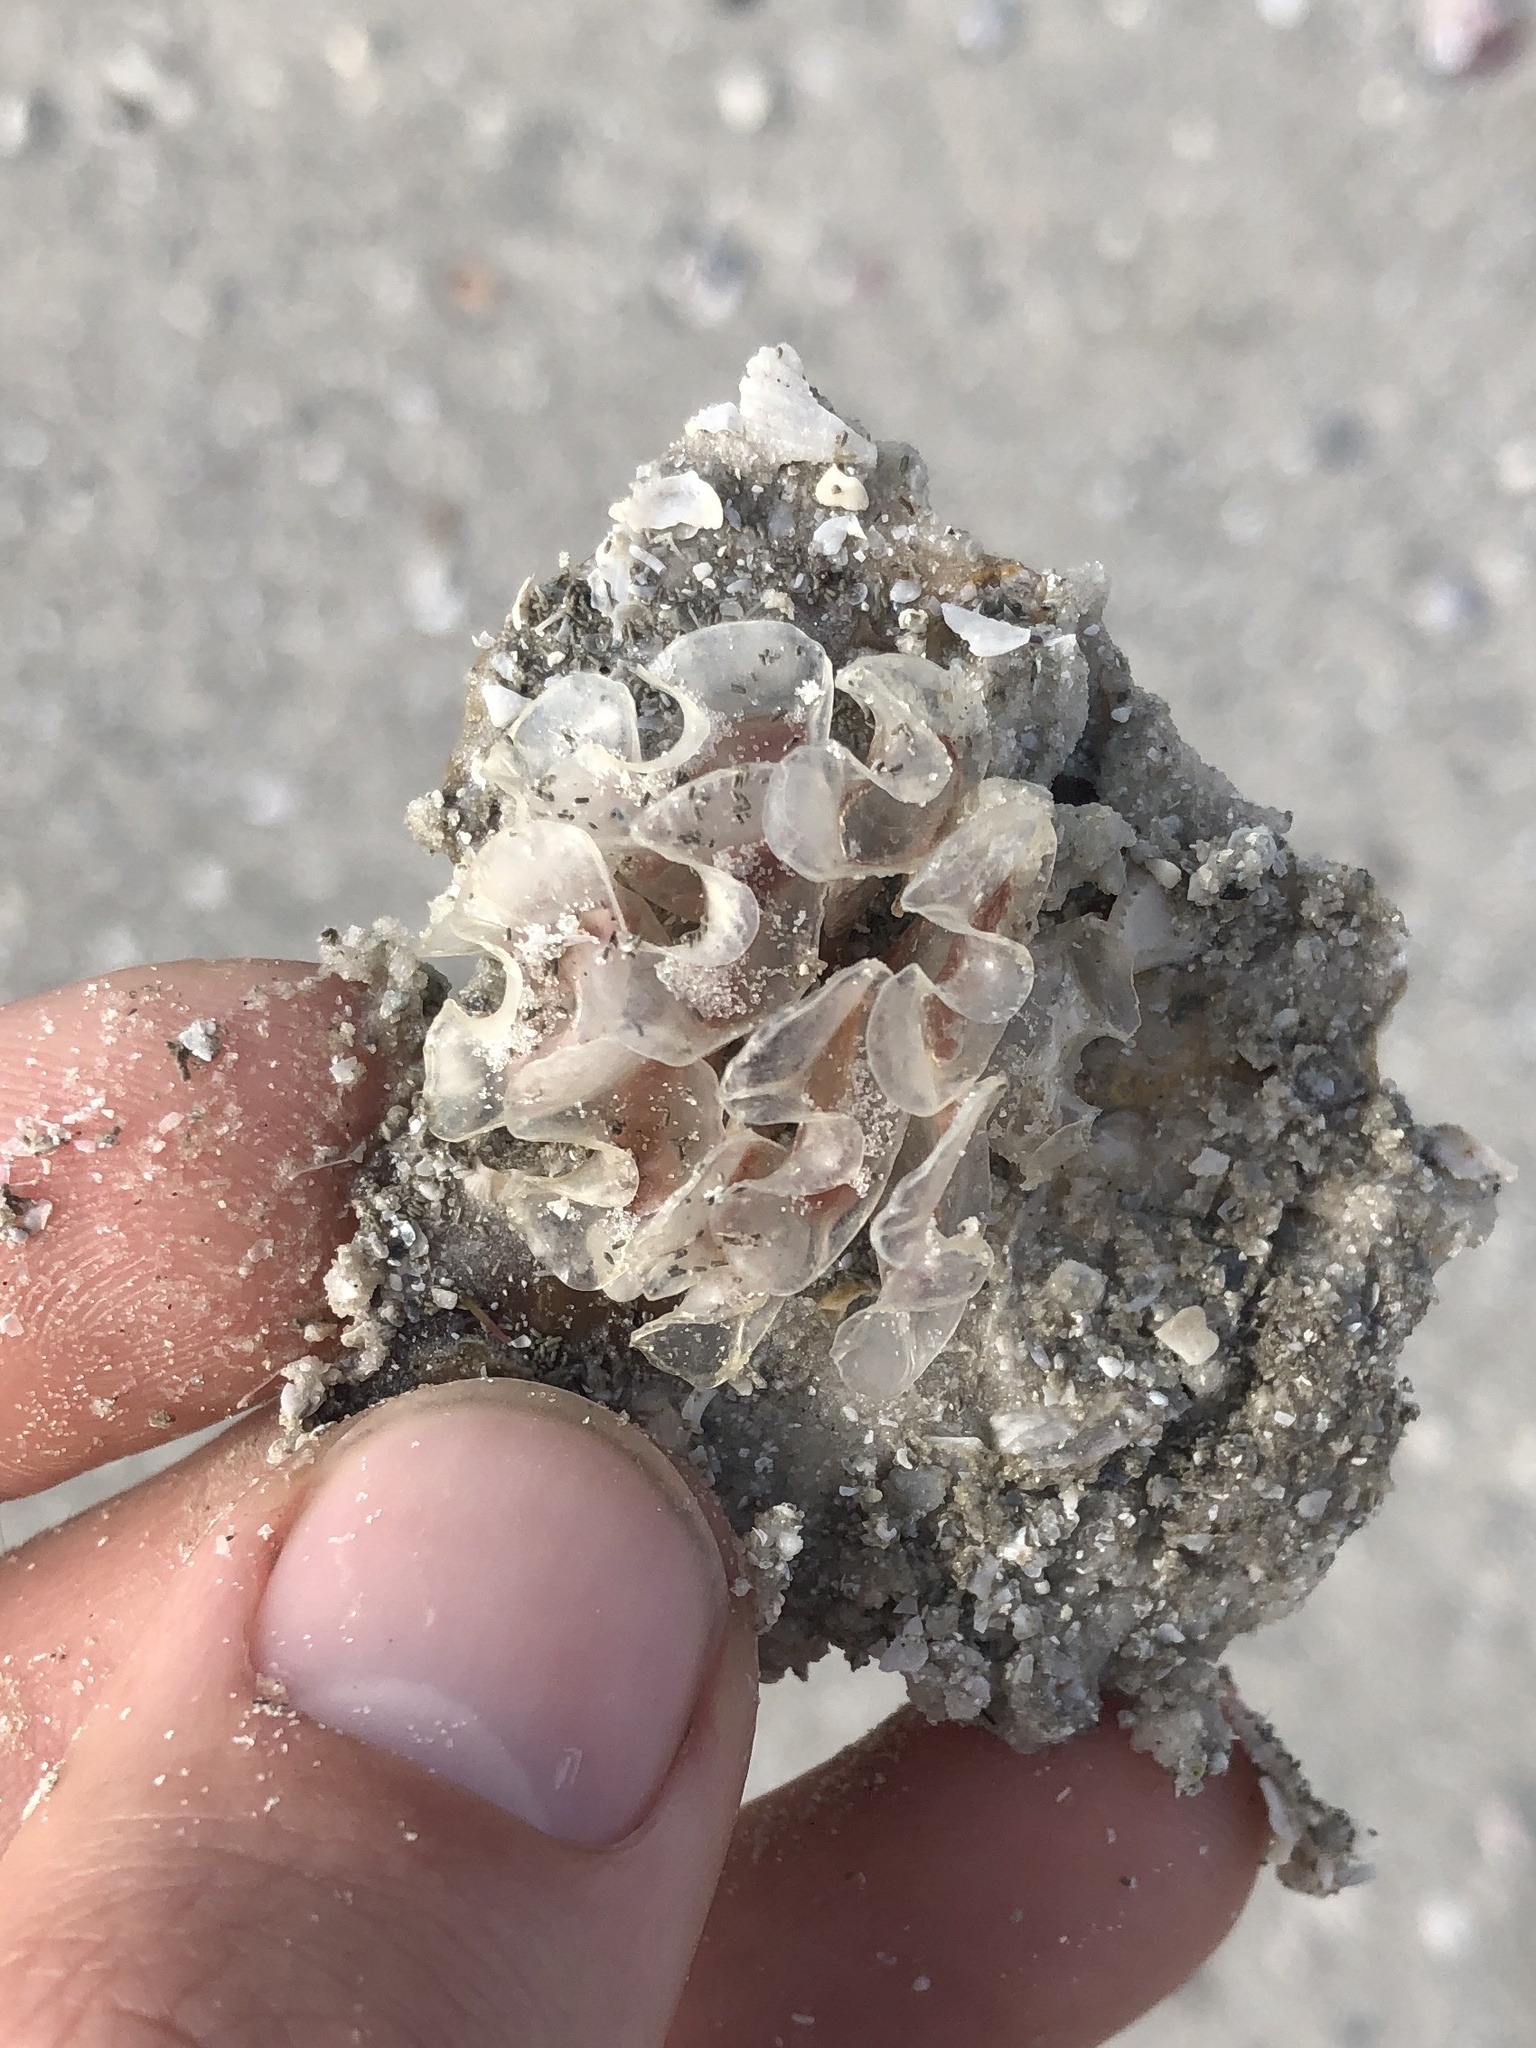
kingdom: Animalia
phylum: Mollusca
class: Gastropoda
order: Neogastropoda
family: Fasciolariidae
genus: Cinctura
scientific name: Cinctura hunteria
